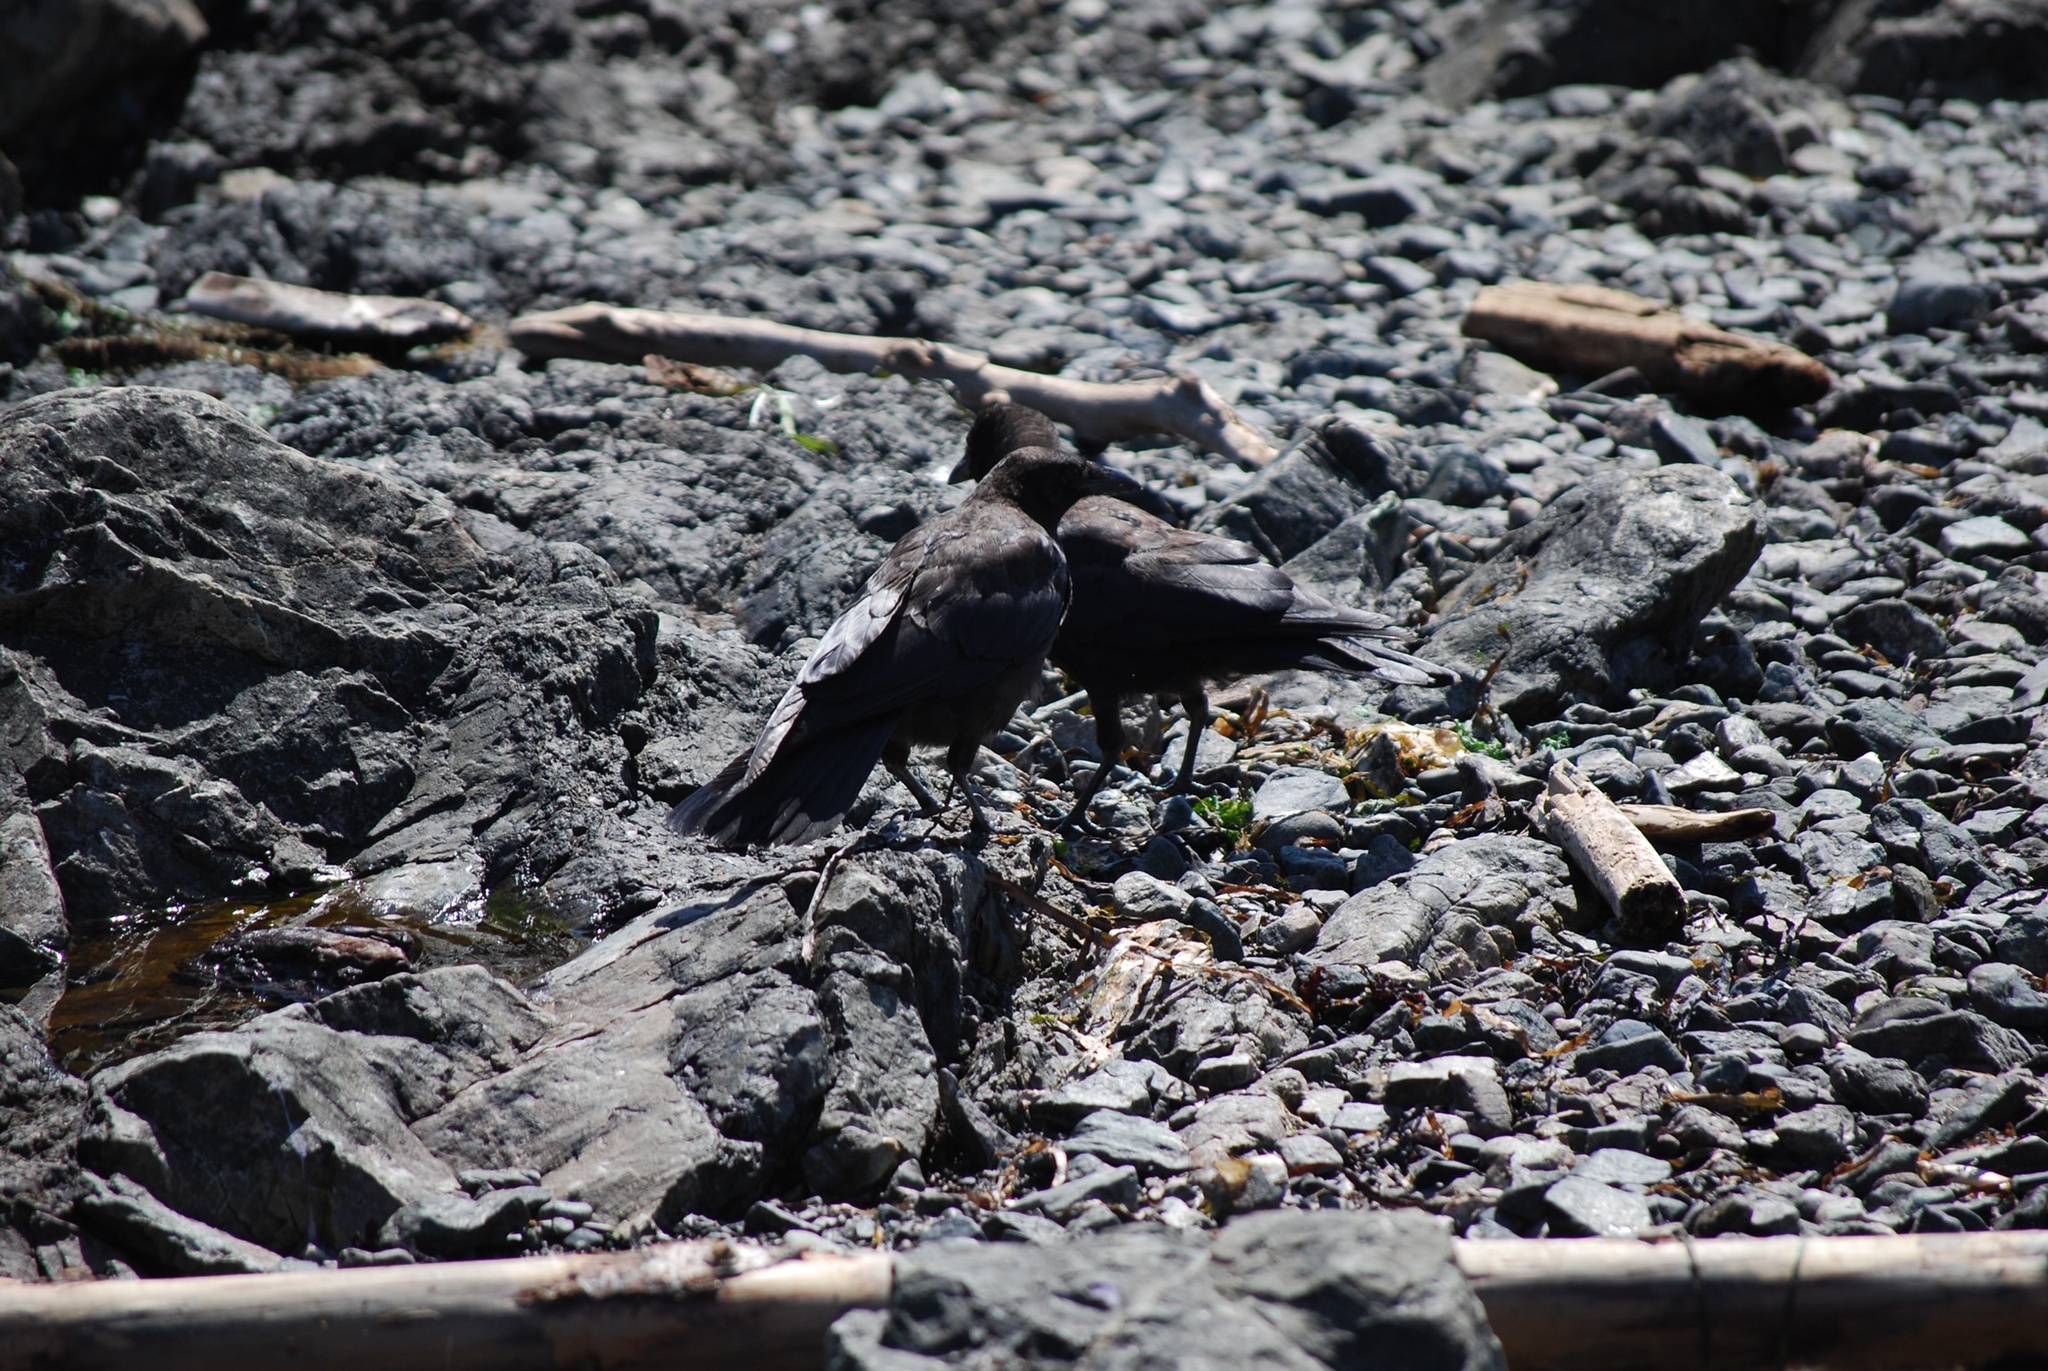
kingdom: Animalia
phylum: Chordata
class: Aves
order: Passeriformes
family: Corvidae
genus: Corvus
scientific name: Corvus brachyrhynchos
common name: American crow
